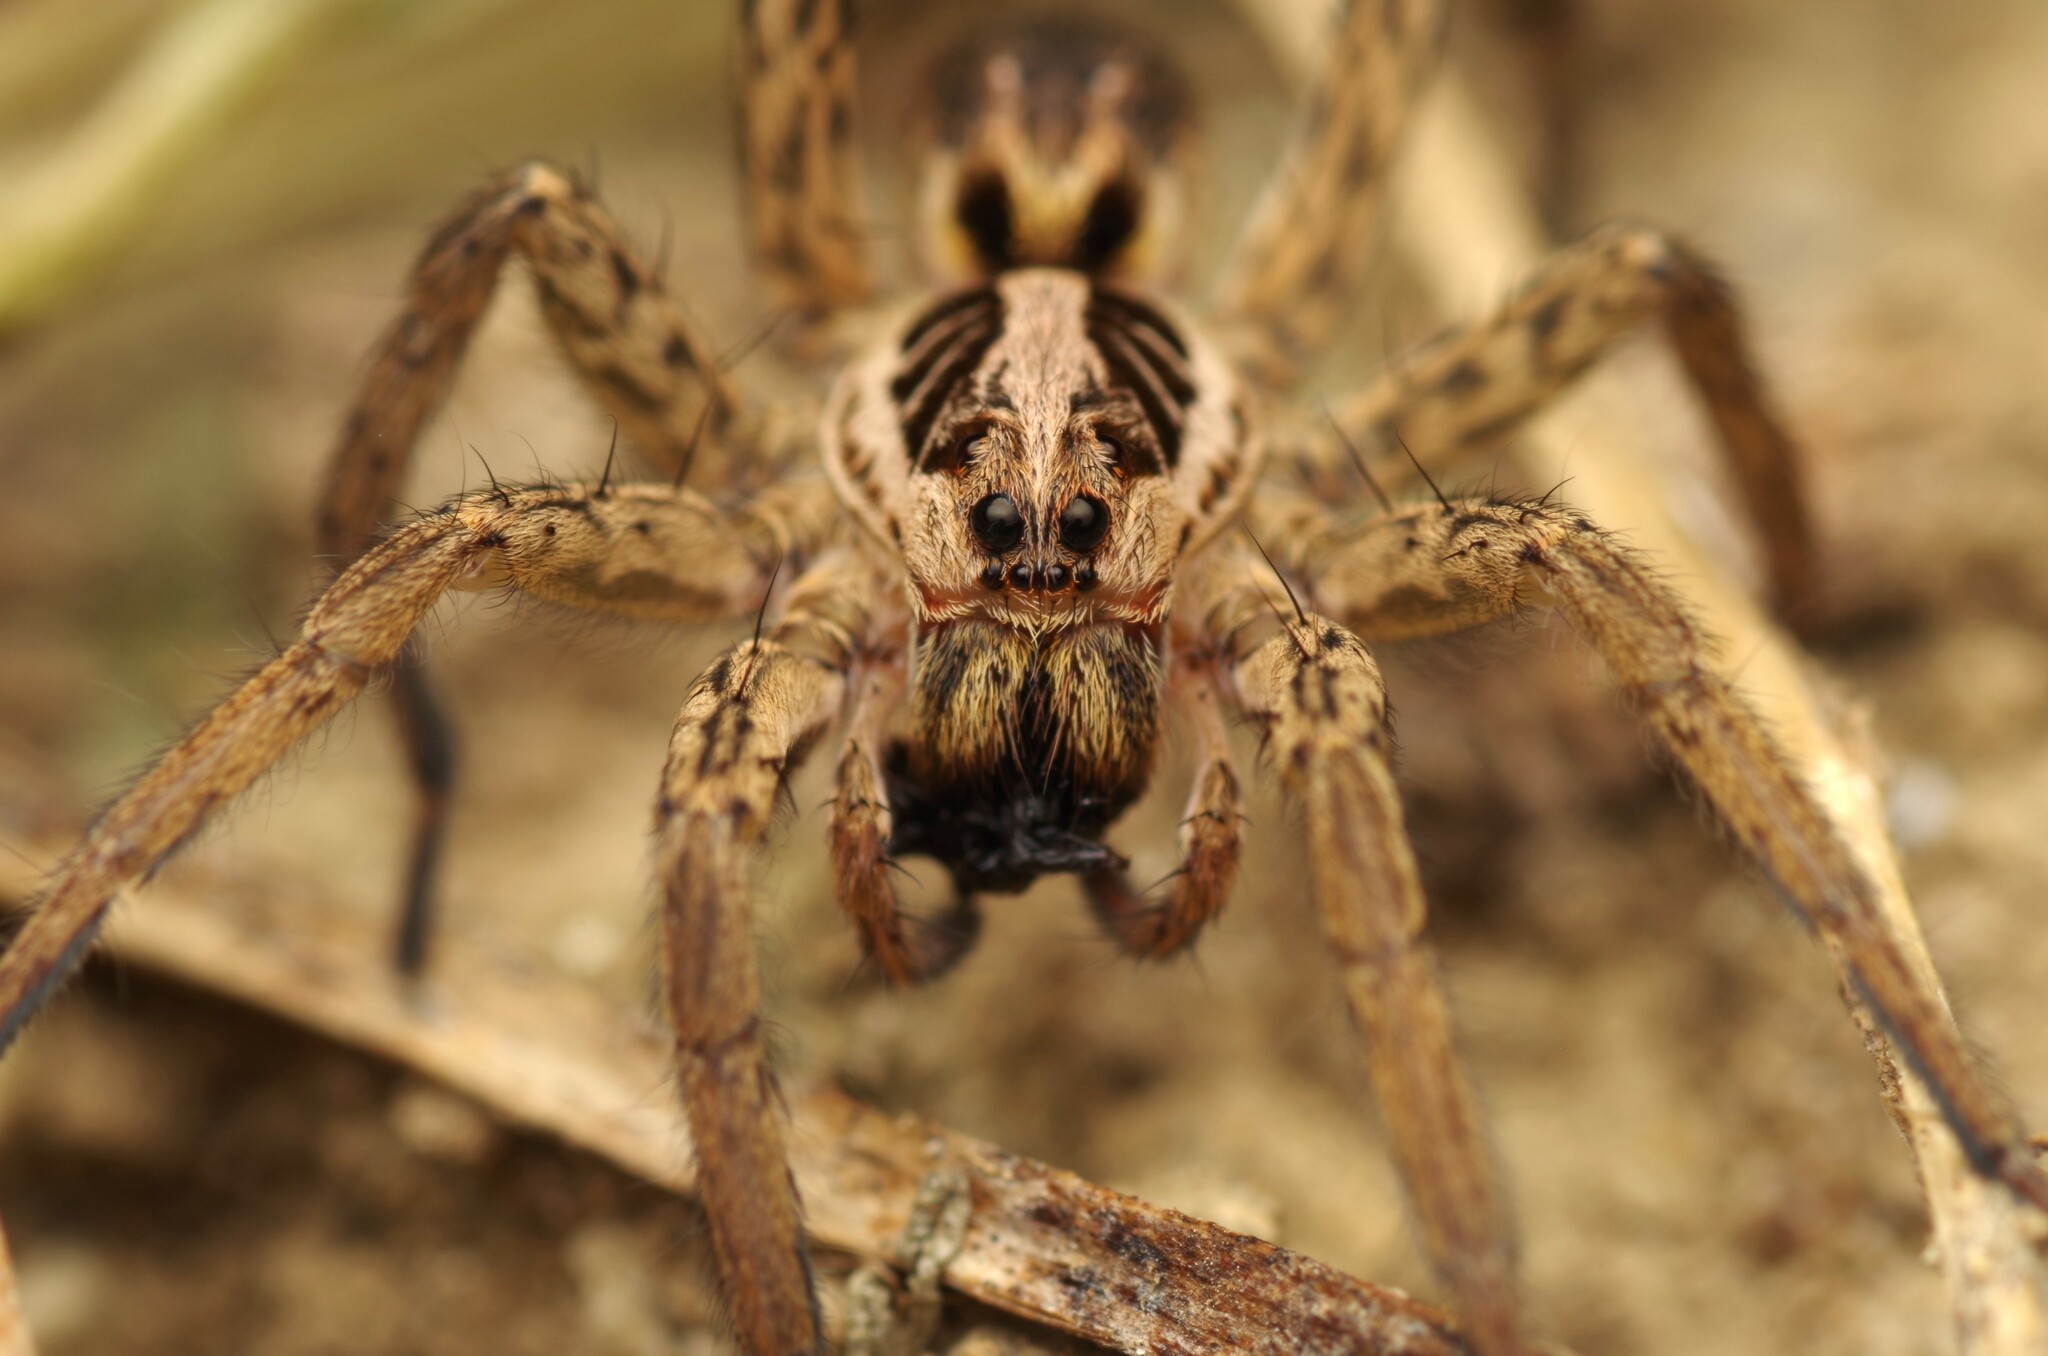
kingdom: Animalia
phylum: Arthropoda
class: Arachnida
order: Araneae
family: Lycosidae
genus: Hogna
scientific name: Hogna radiata
